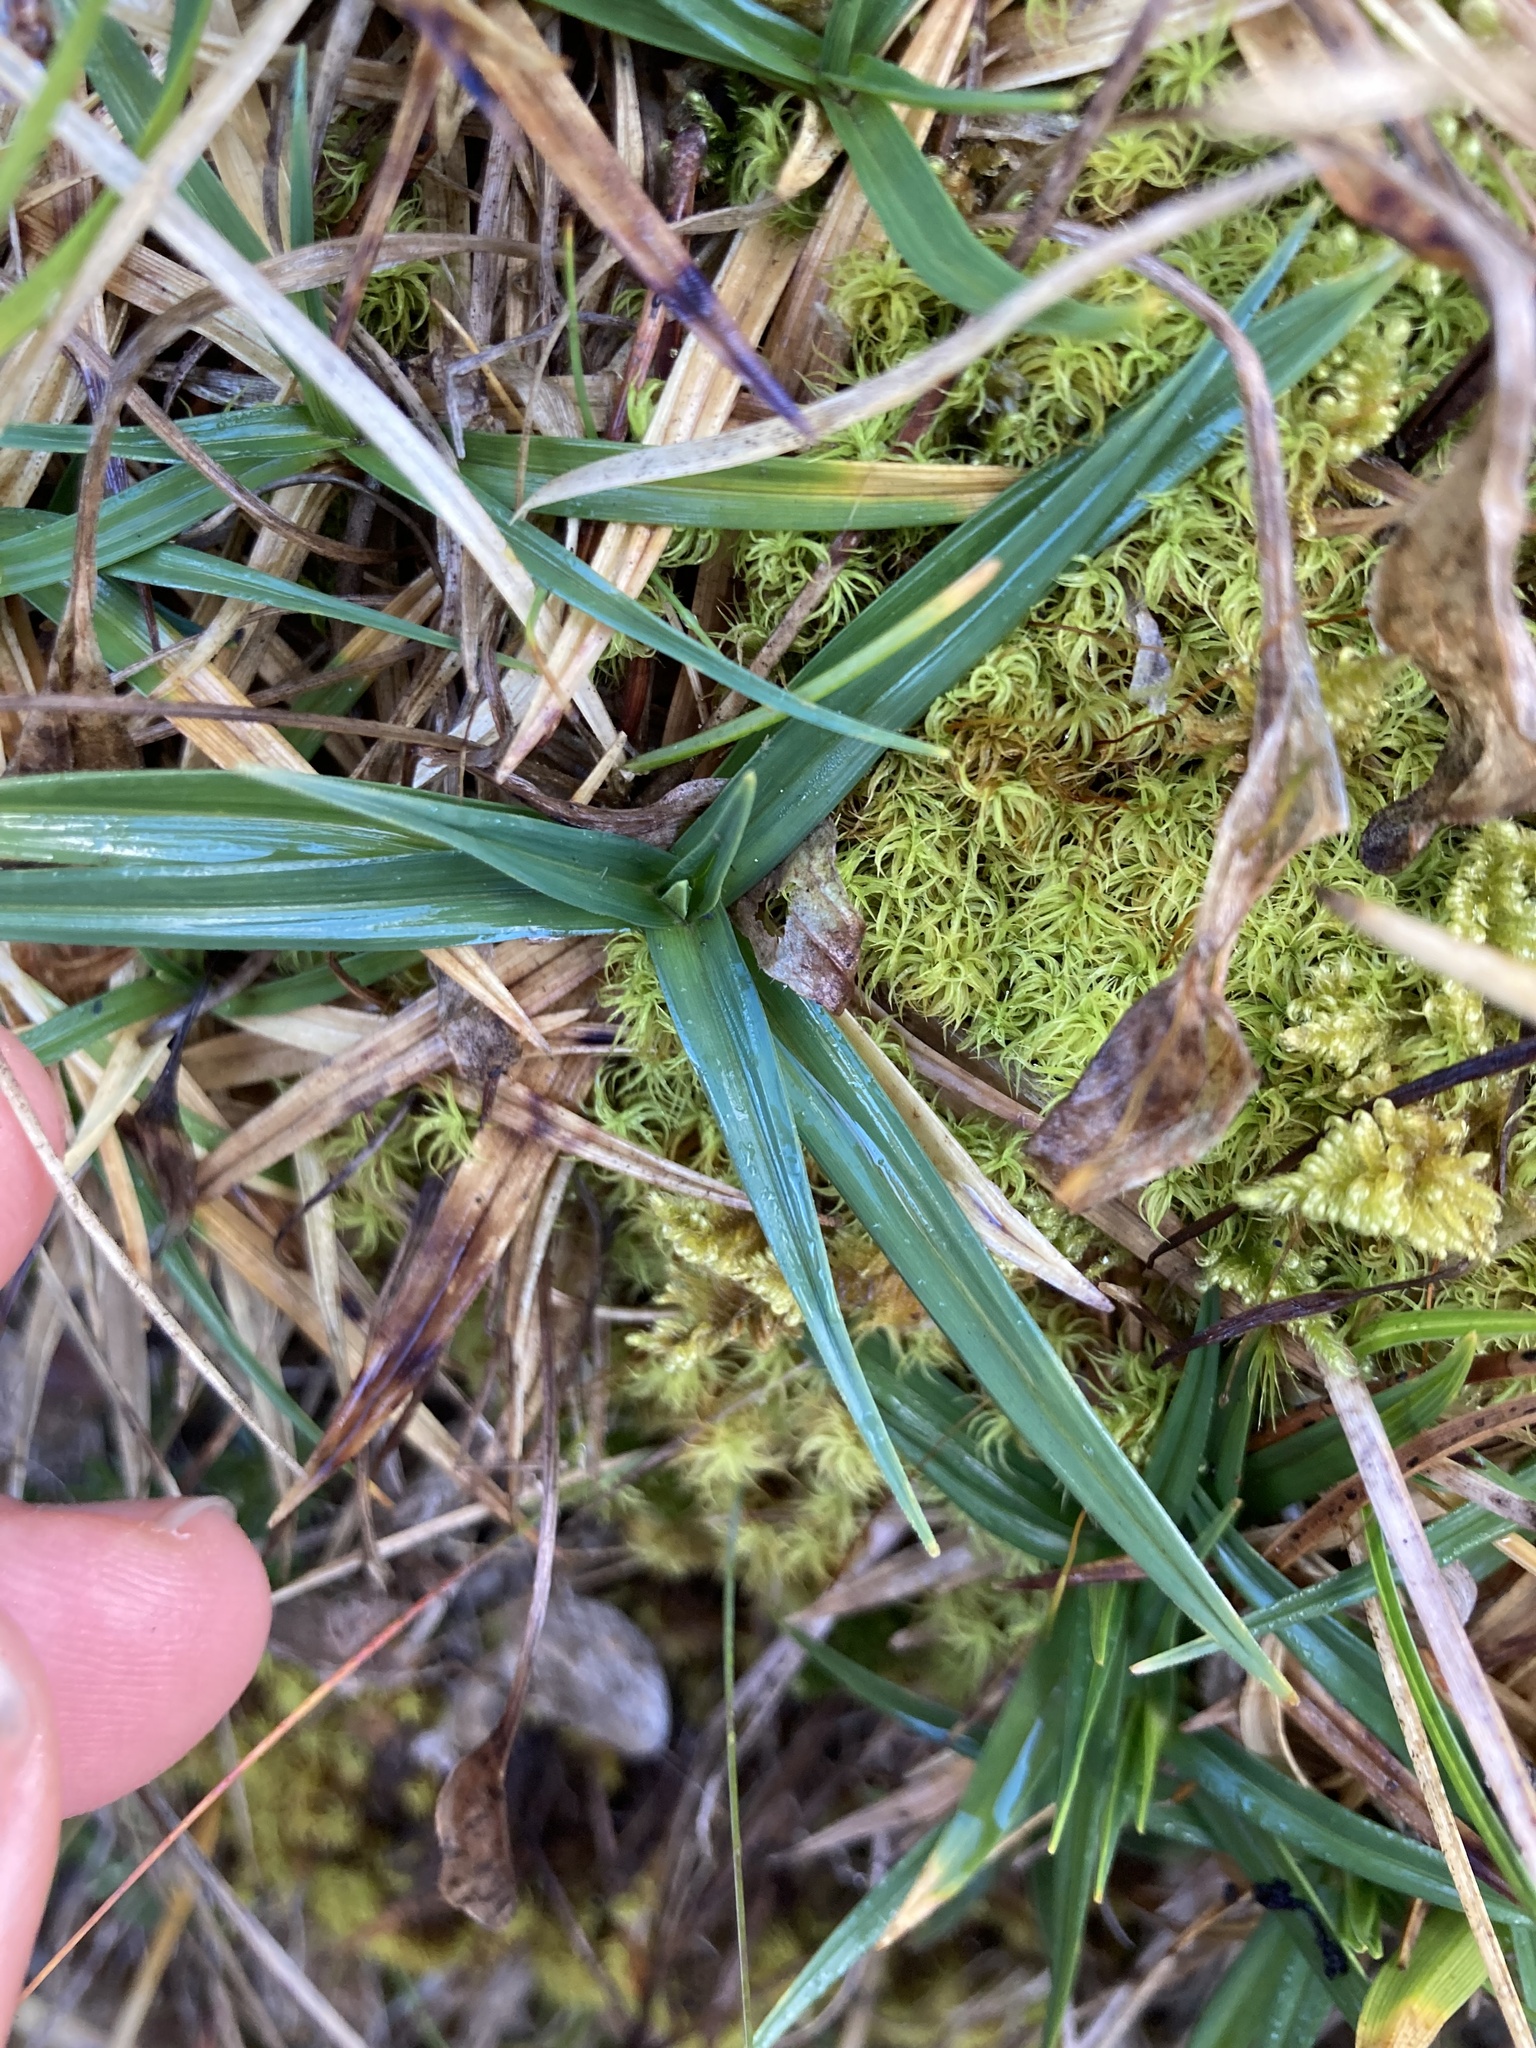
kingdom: Plantae
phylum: Tracheophyta
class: Liliopsida
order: Poales
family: Cyperaceae
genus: Carex
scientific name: Carex firma
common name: Dwarf pillow sedge
